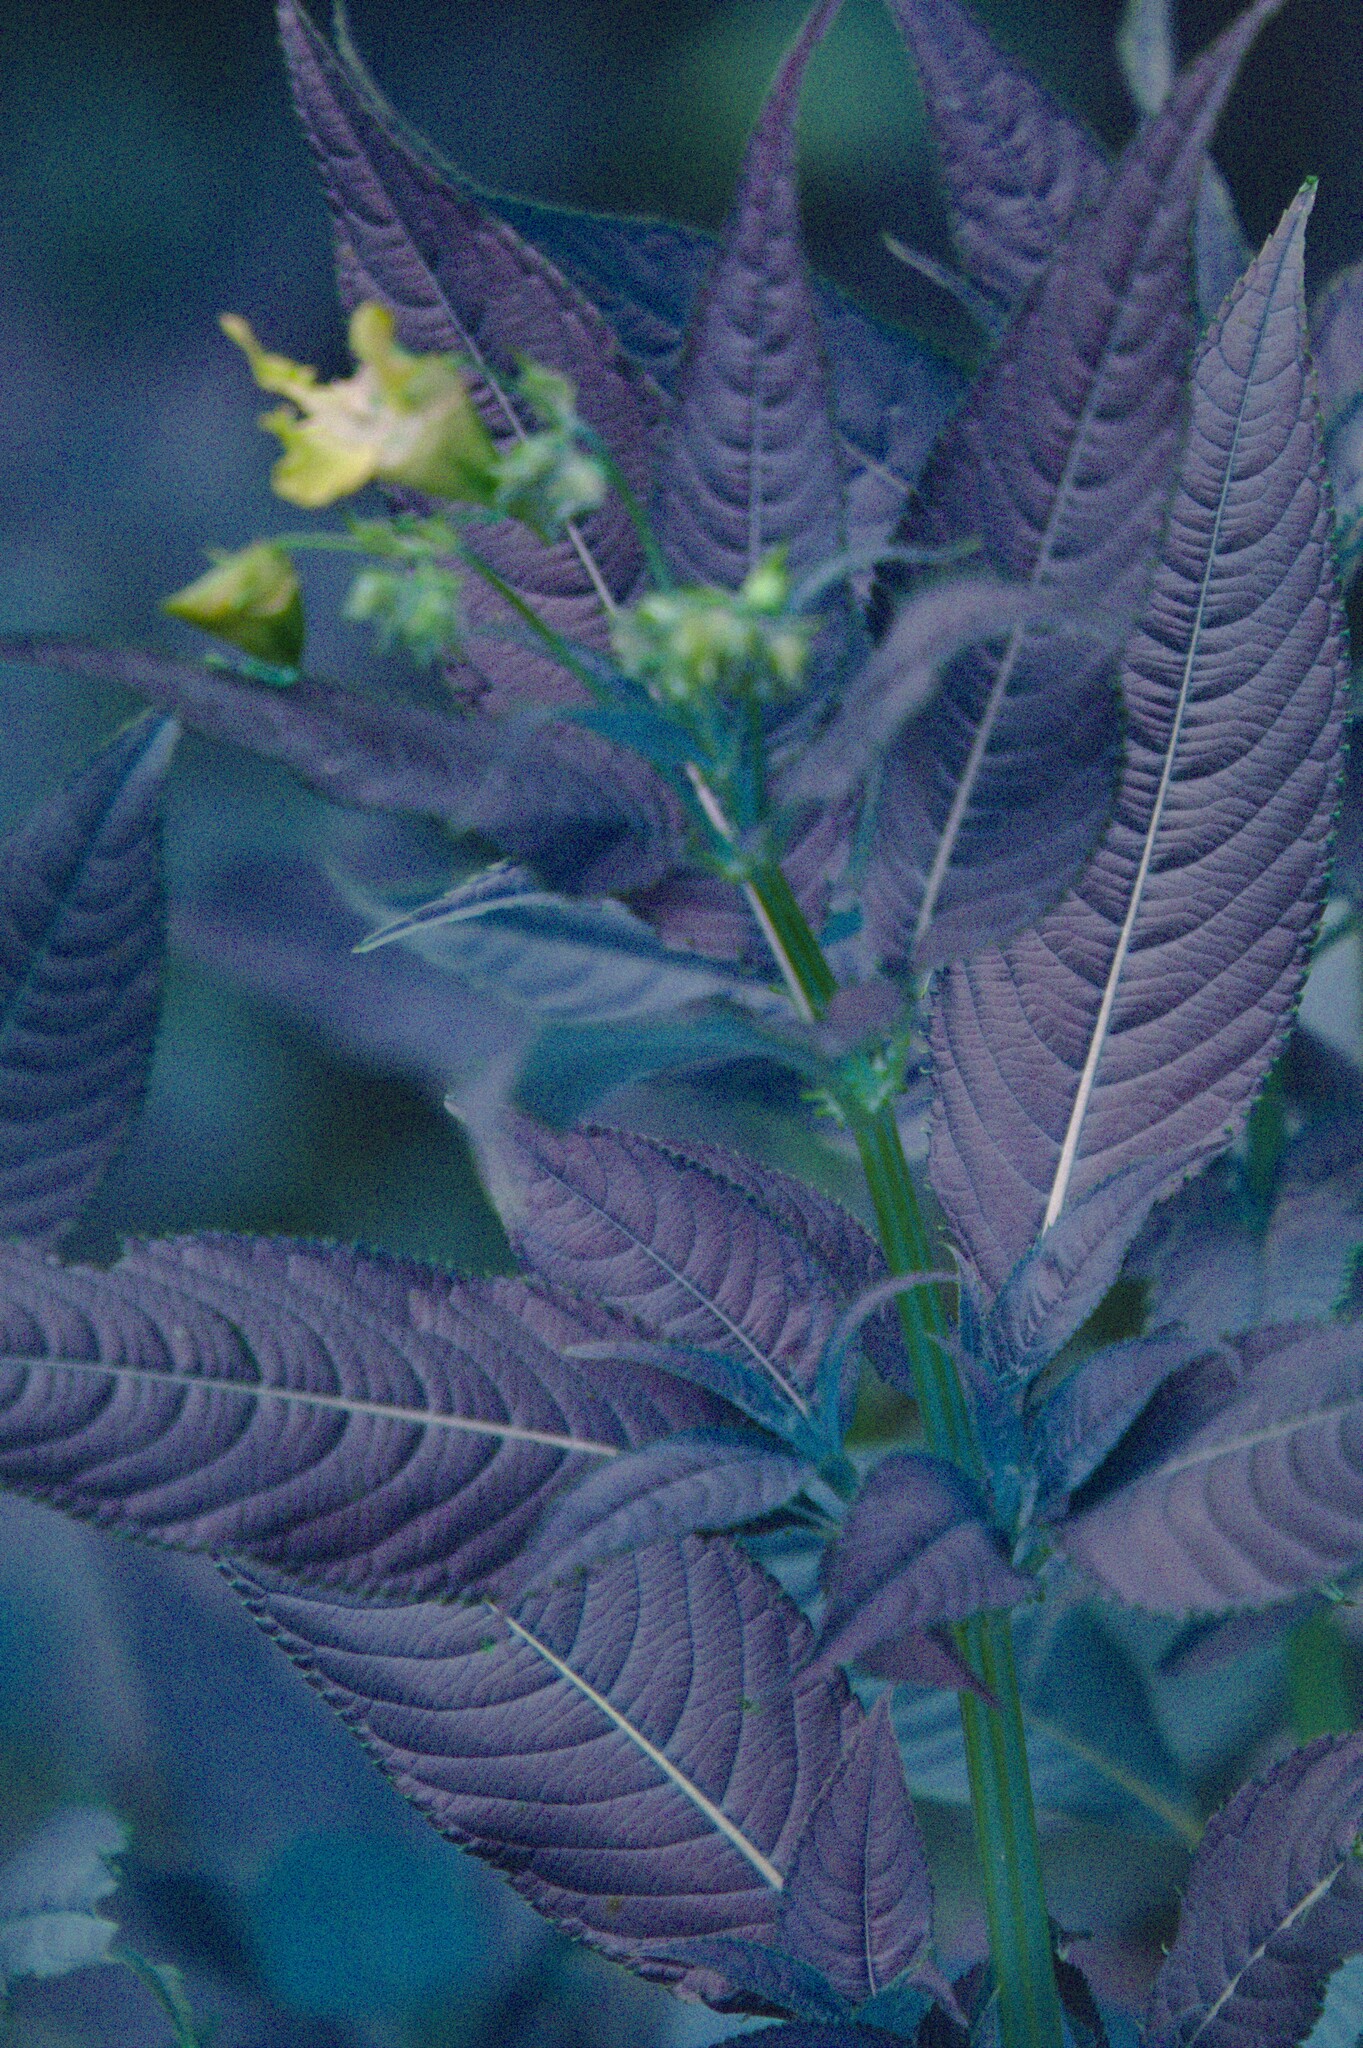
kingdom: Plantae
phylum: Tracheophyta
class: Magnoliopsida
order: Ericales
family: Balsaminaceae
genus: Impatiens
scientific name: Impatiens glandulifera
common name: Himalayan balsam
